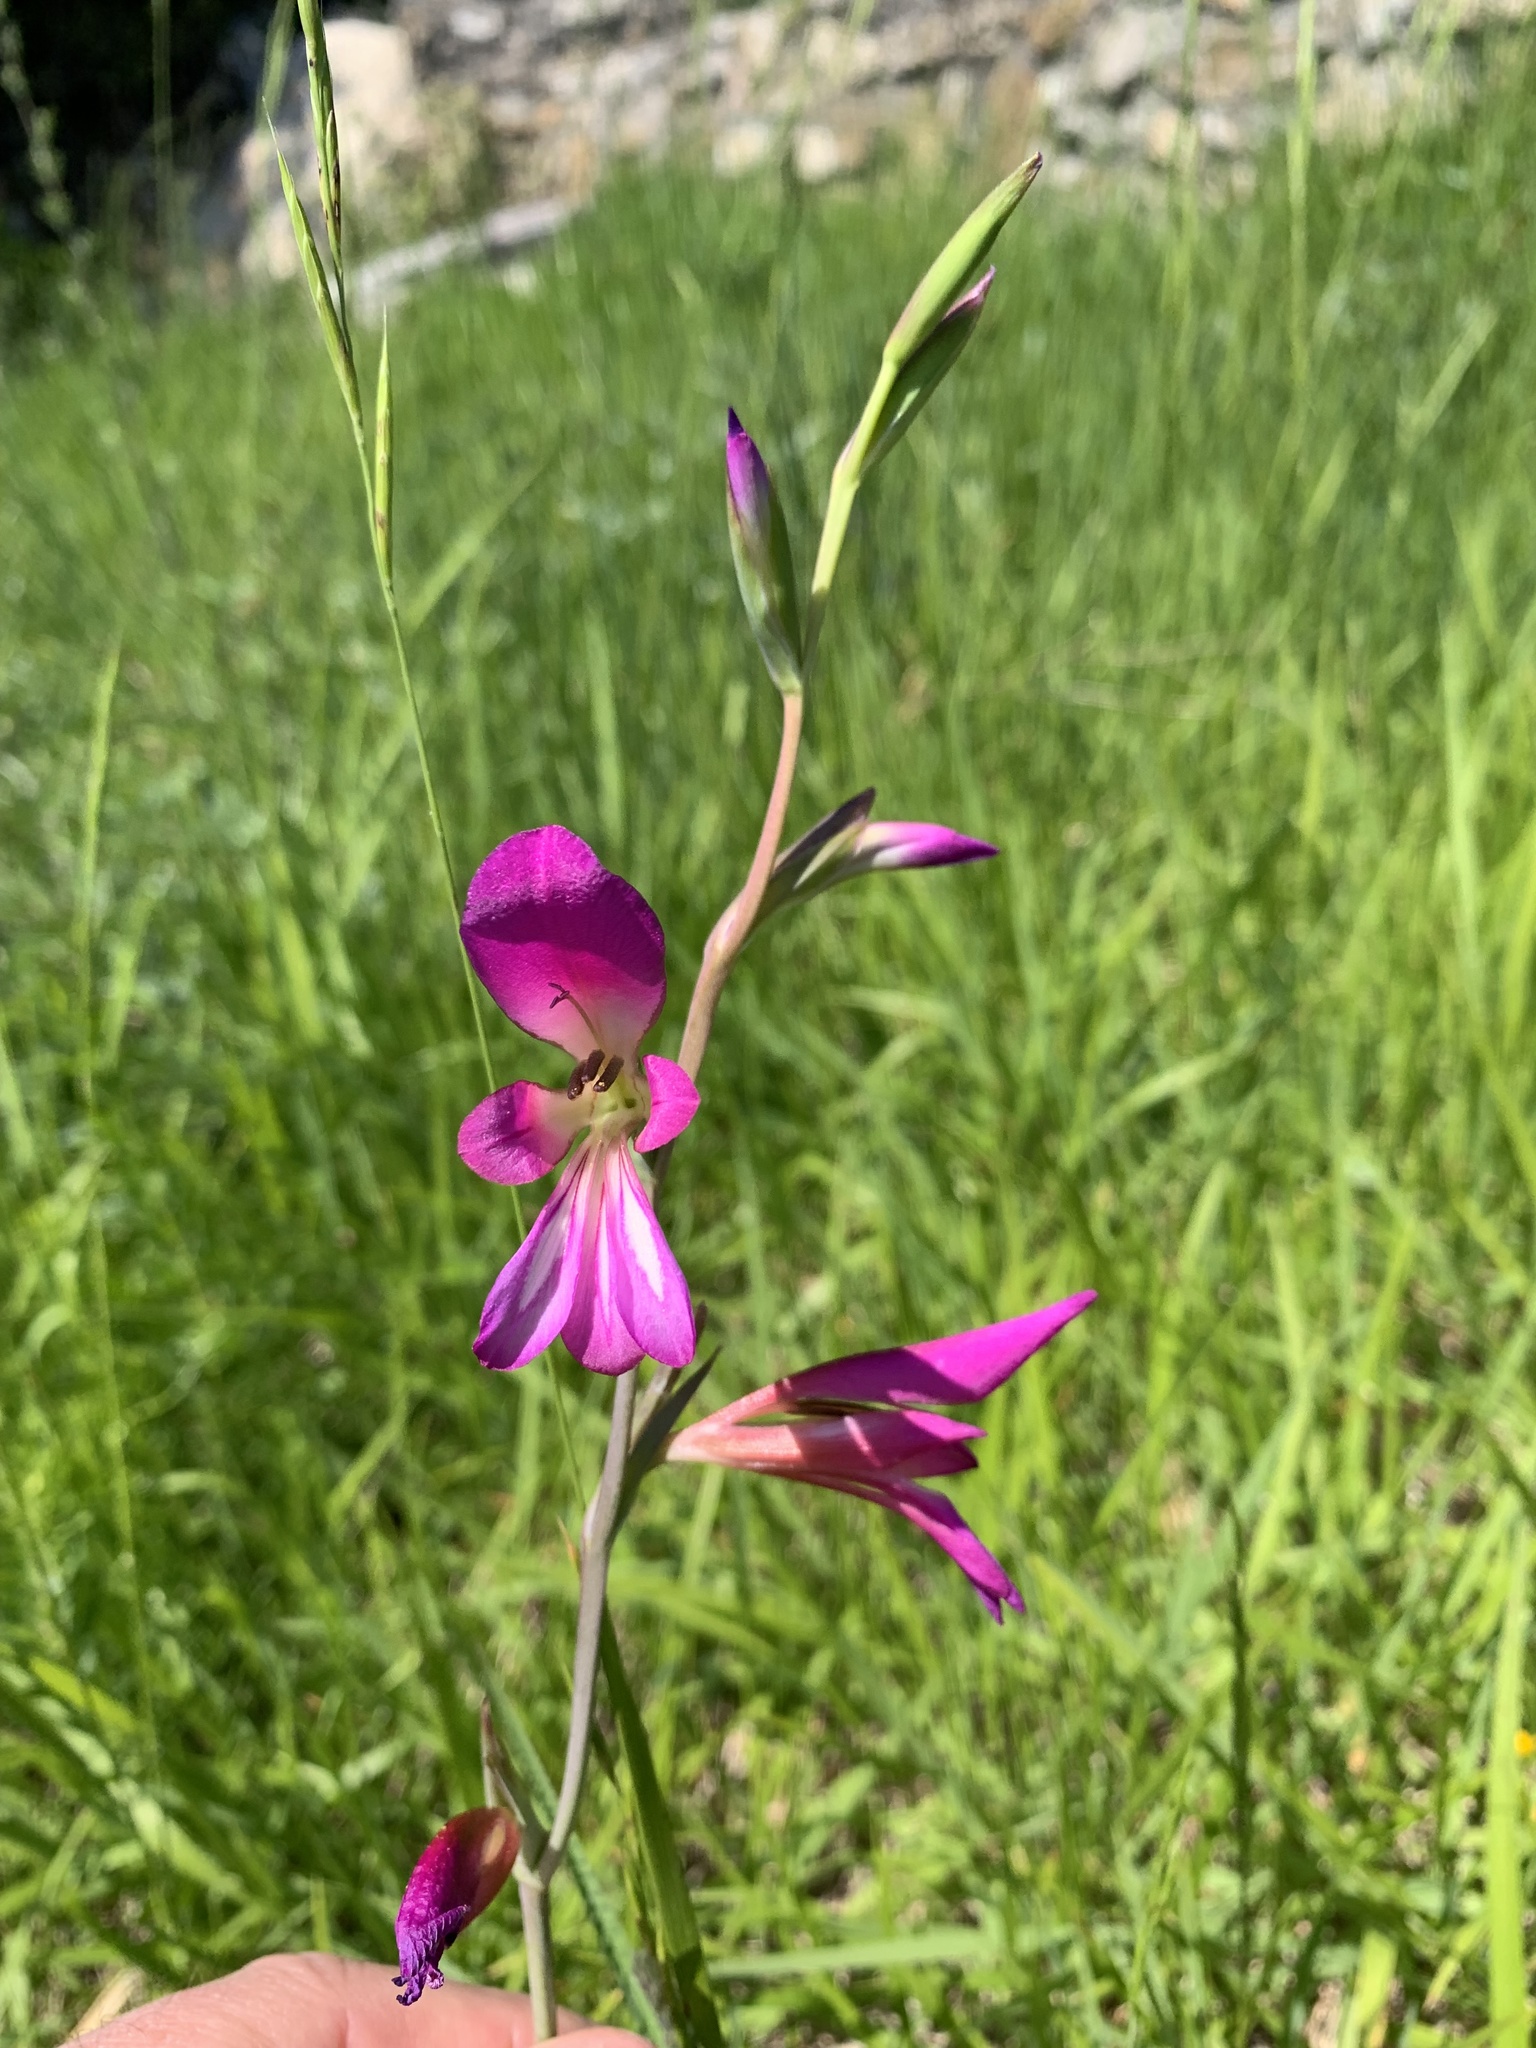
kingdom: Plantae
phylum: Tracheophyta
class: Liliopsida
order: Asparagales
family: Iridaceae
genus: Gladiolus
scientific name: Gladiolus italicus
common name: Field gladiolus
